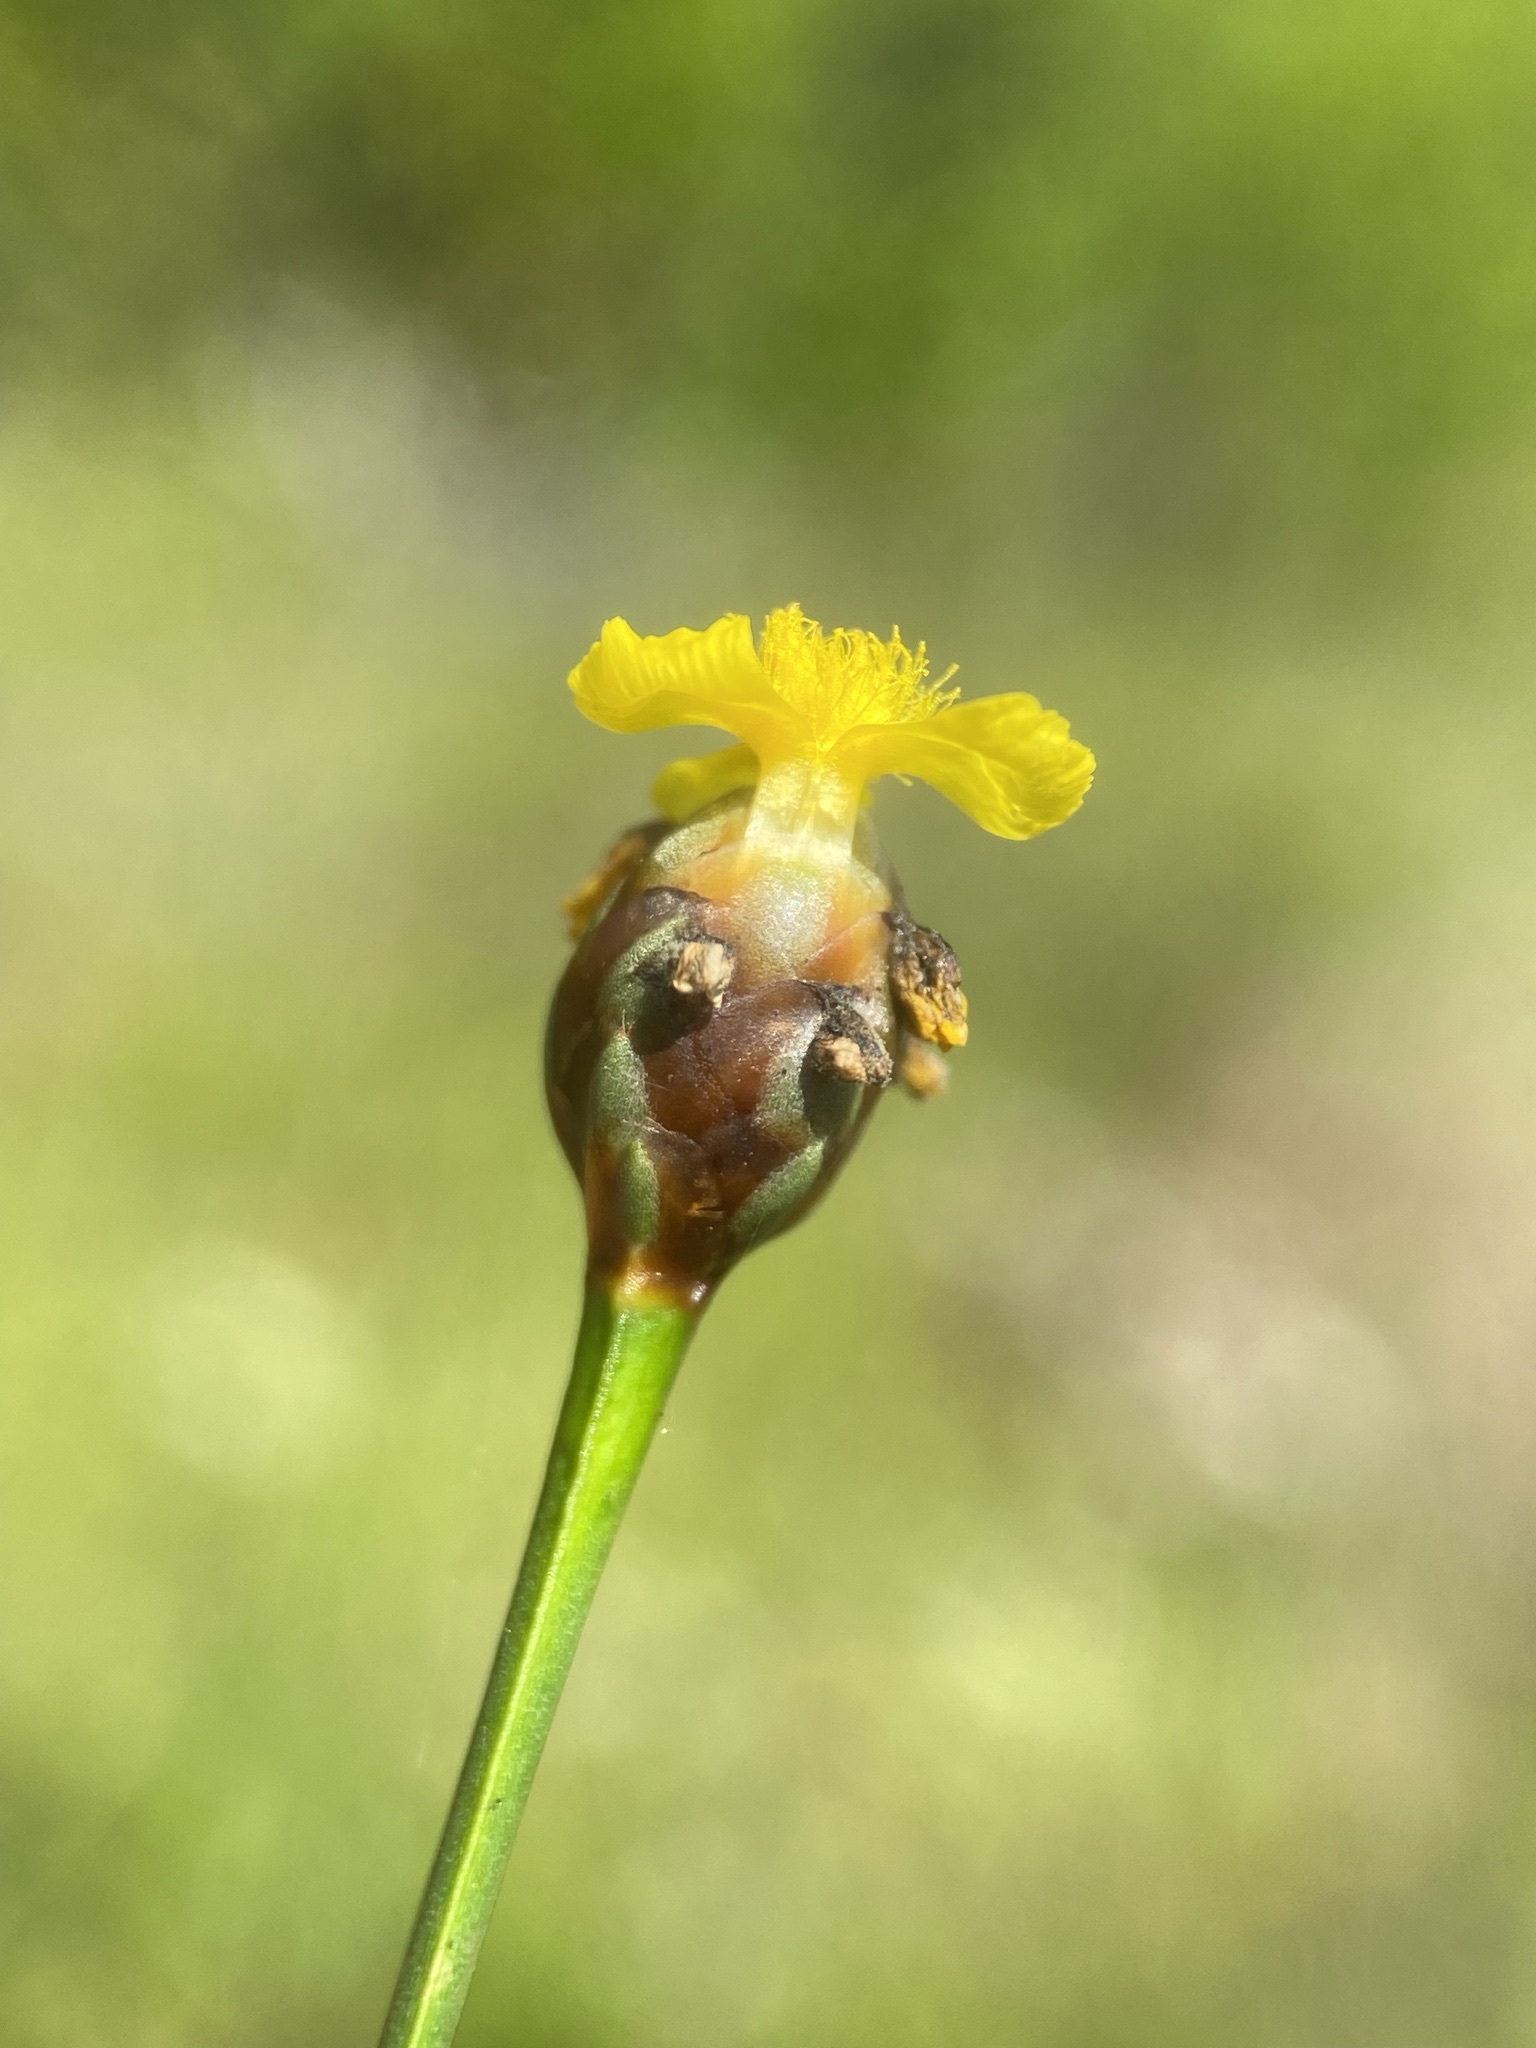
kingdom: Plantae
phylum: Tracheophyta
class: Liliopsida
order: Poales
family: Xyridaceae
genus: Xyris
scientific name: Xyris jupicai
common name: Richard's yelloweyed grass
